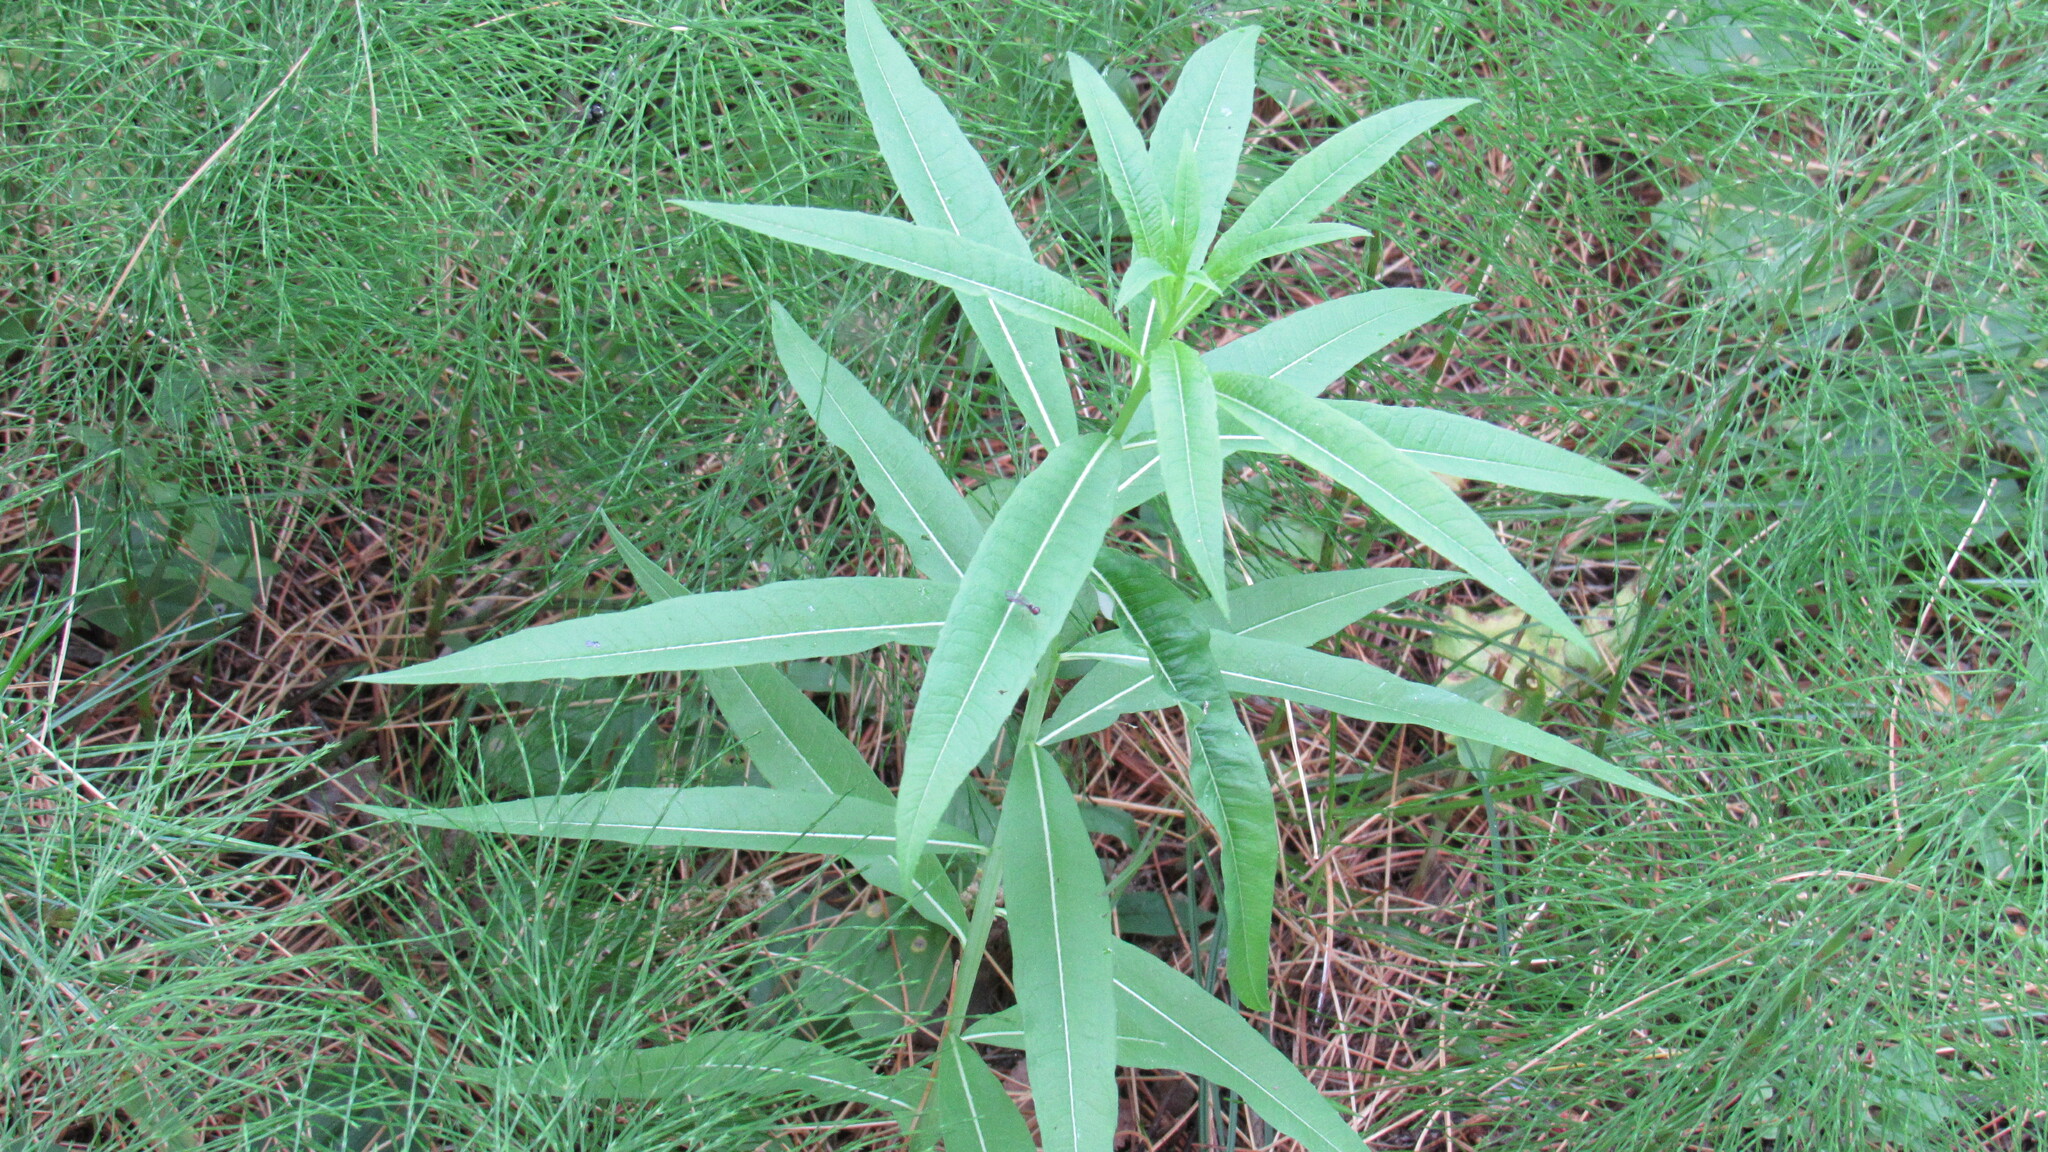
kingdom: Plantae
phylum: Tracheophyta
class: Magnoliopsida
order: Myrtales
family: Onagraceae
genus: Chamaenerion
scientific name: Chamaenerion angustifolium
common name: Fireweed
